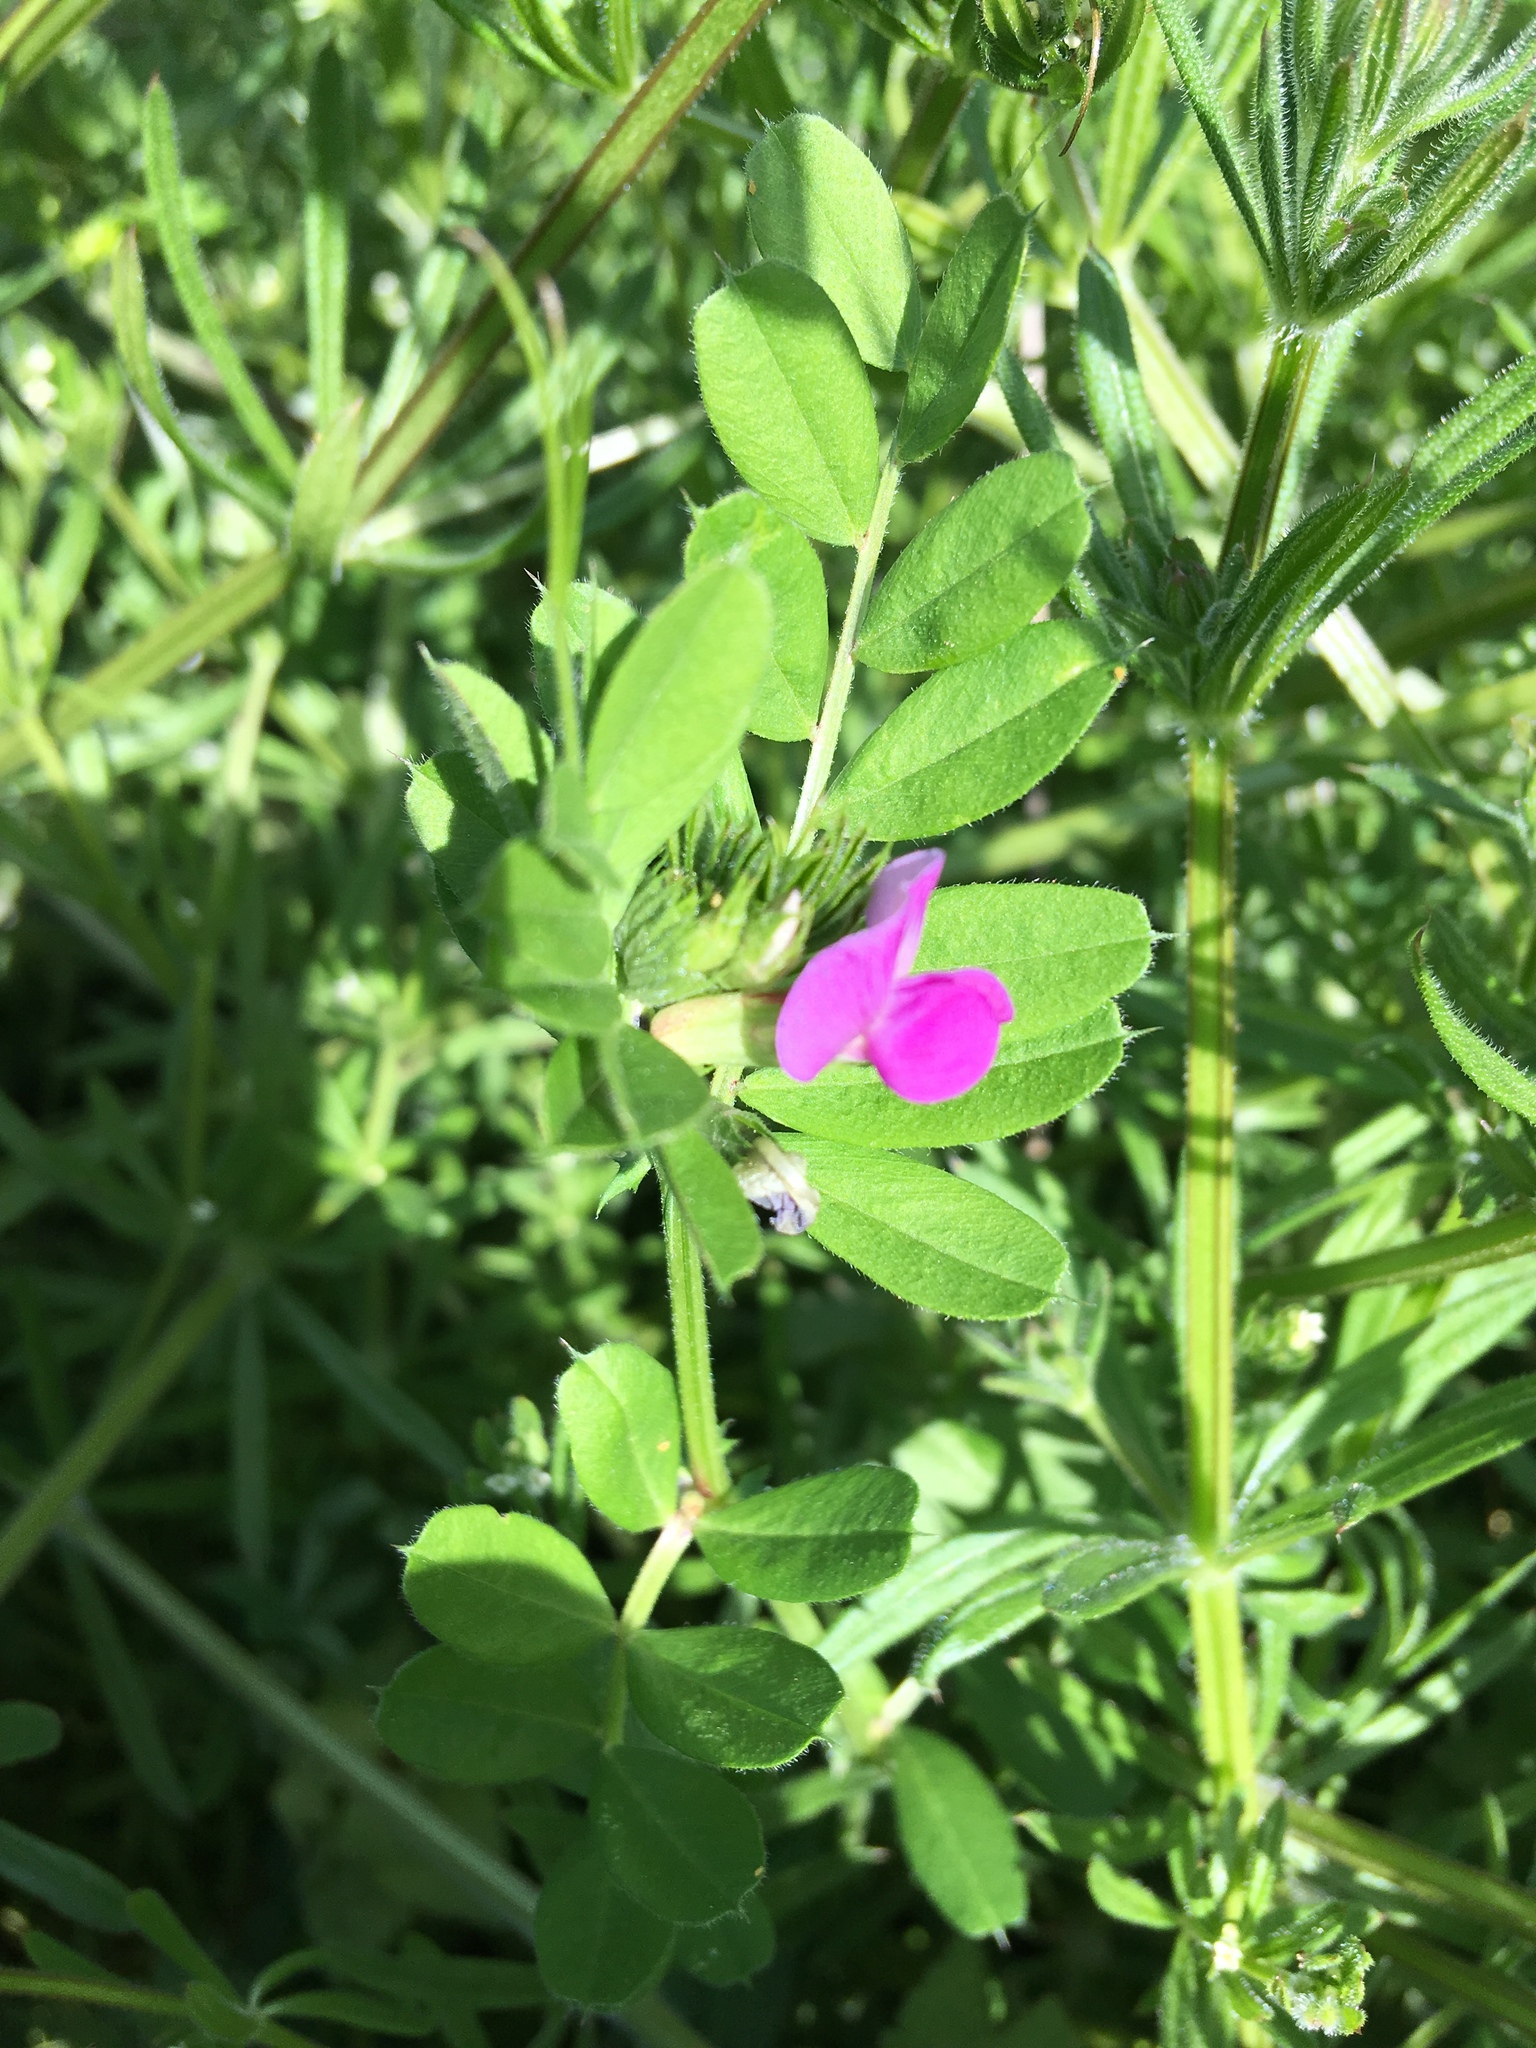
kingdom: Plantae
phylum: Tracheophyta
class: Magnoliopsida
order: Fabales
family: Fabaceae
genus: Vicia
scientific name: Vicia sativa
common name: Garden vetch
